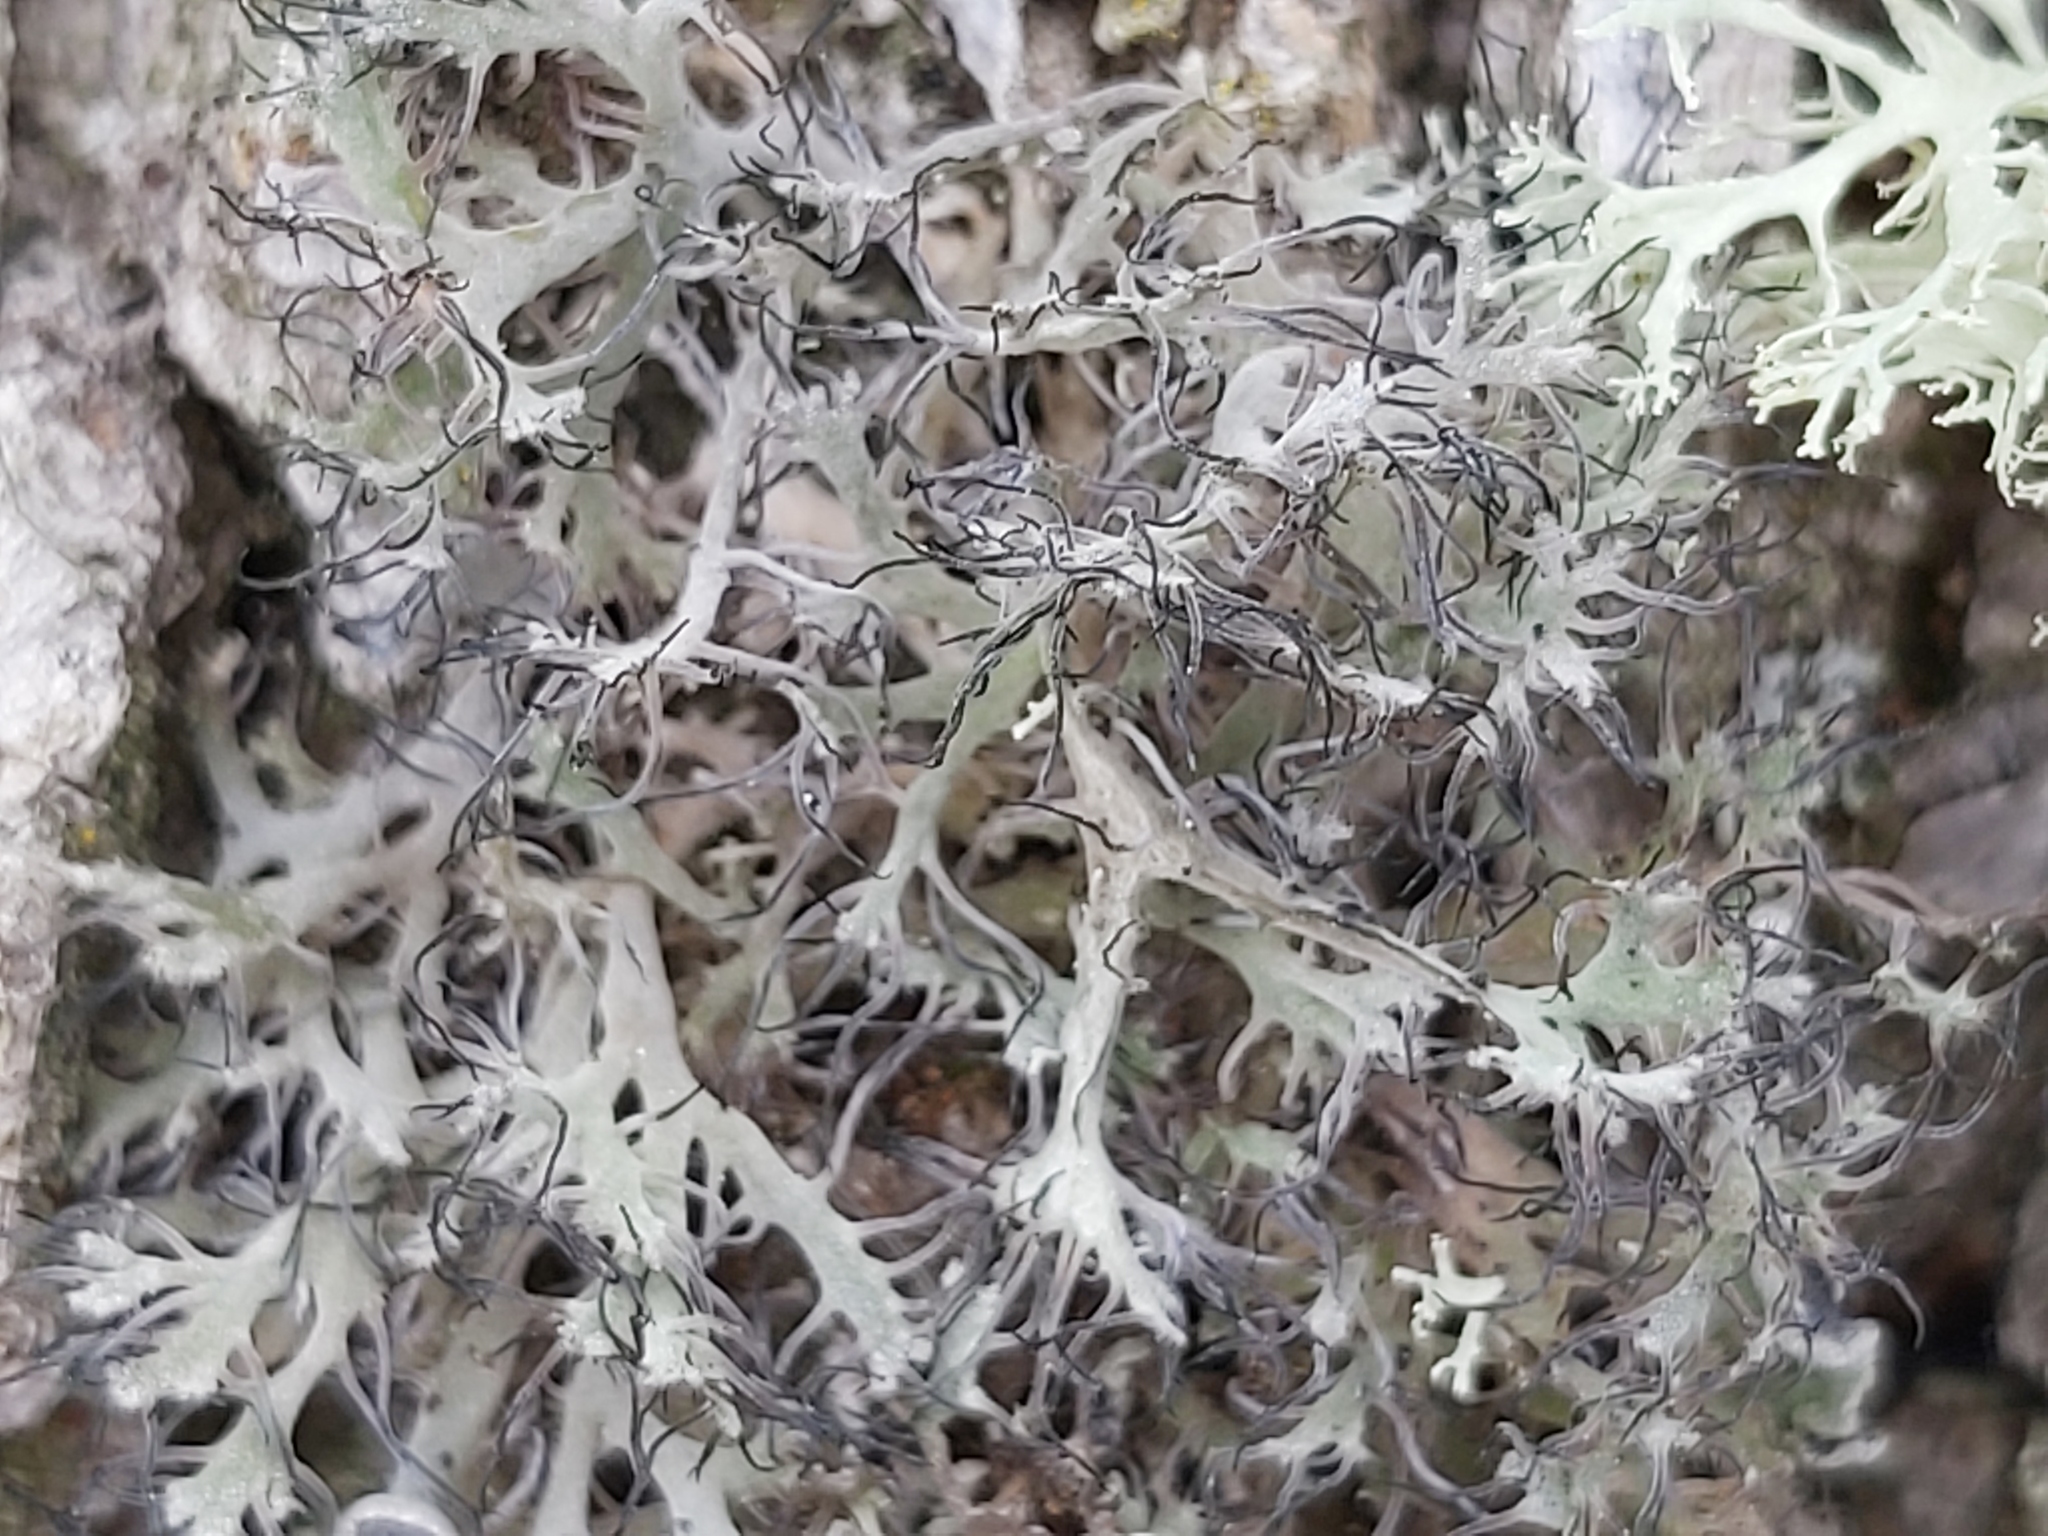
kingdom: Fungi
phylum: Ascomycota
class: Lecanoromycetes
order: Caliciales
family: Physciaceae
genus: Anaptychia
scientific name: Anaptychia ciliaris
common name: Great ciliated lichen
